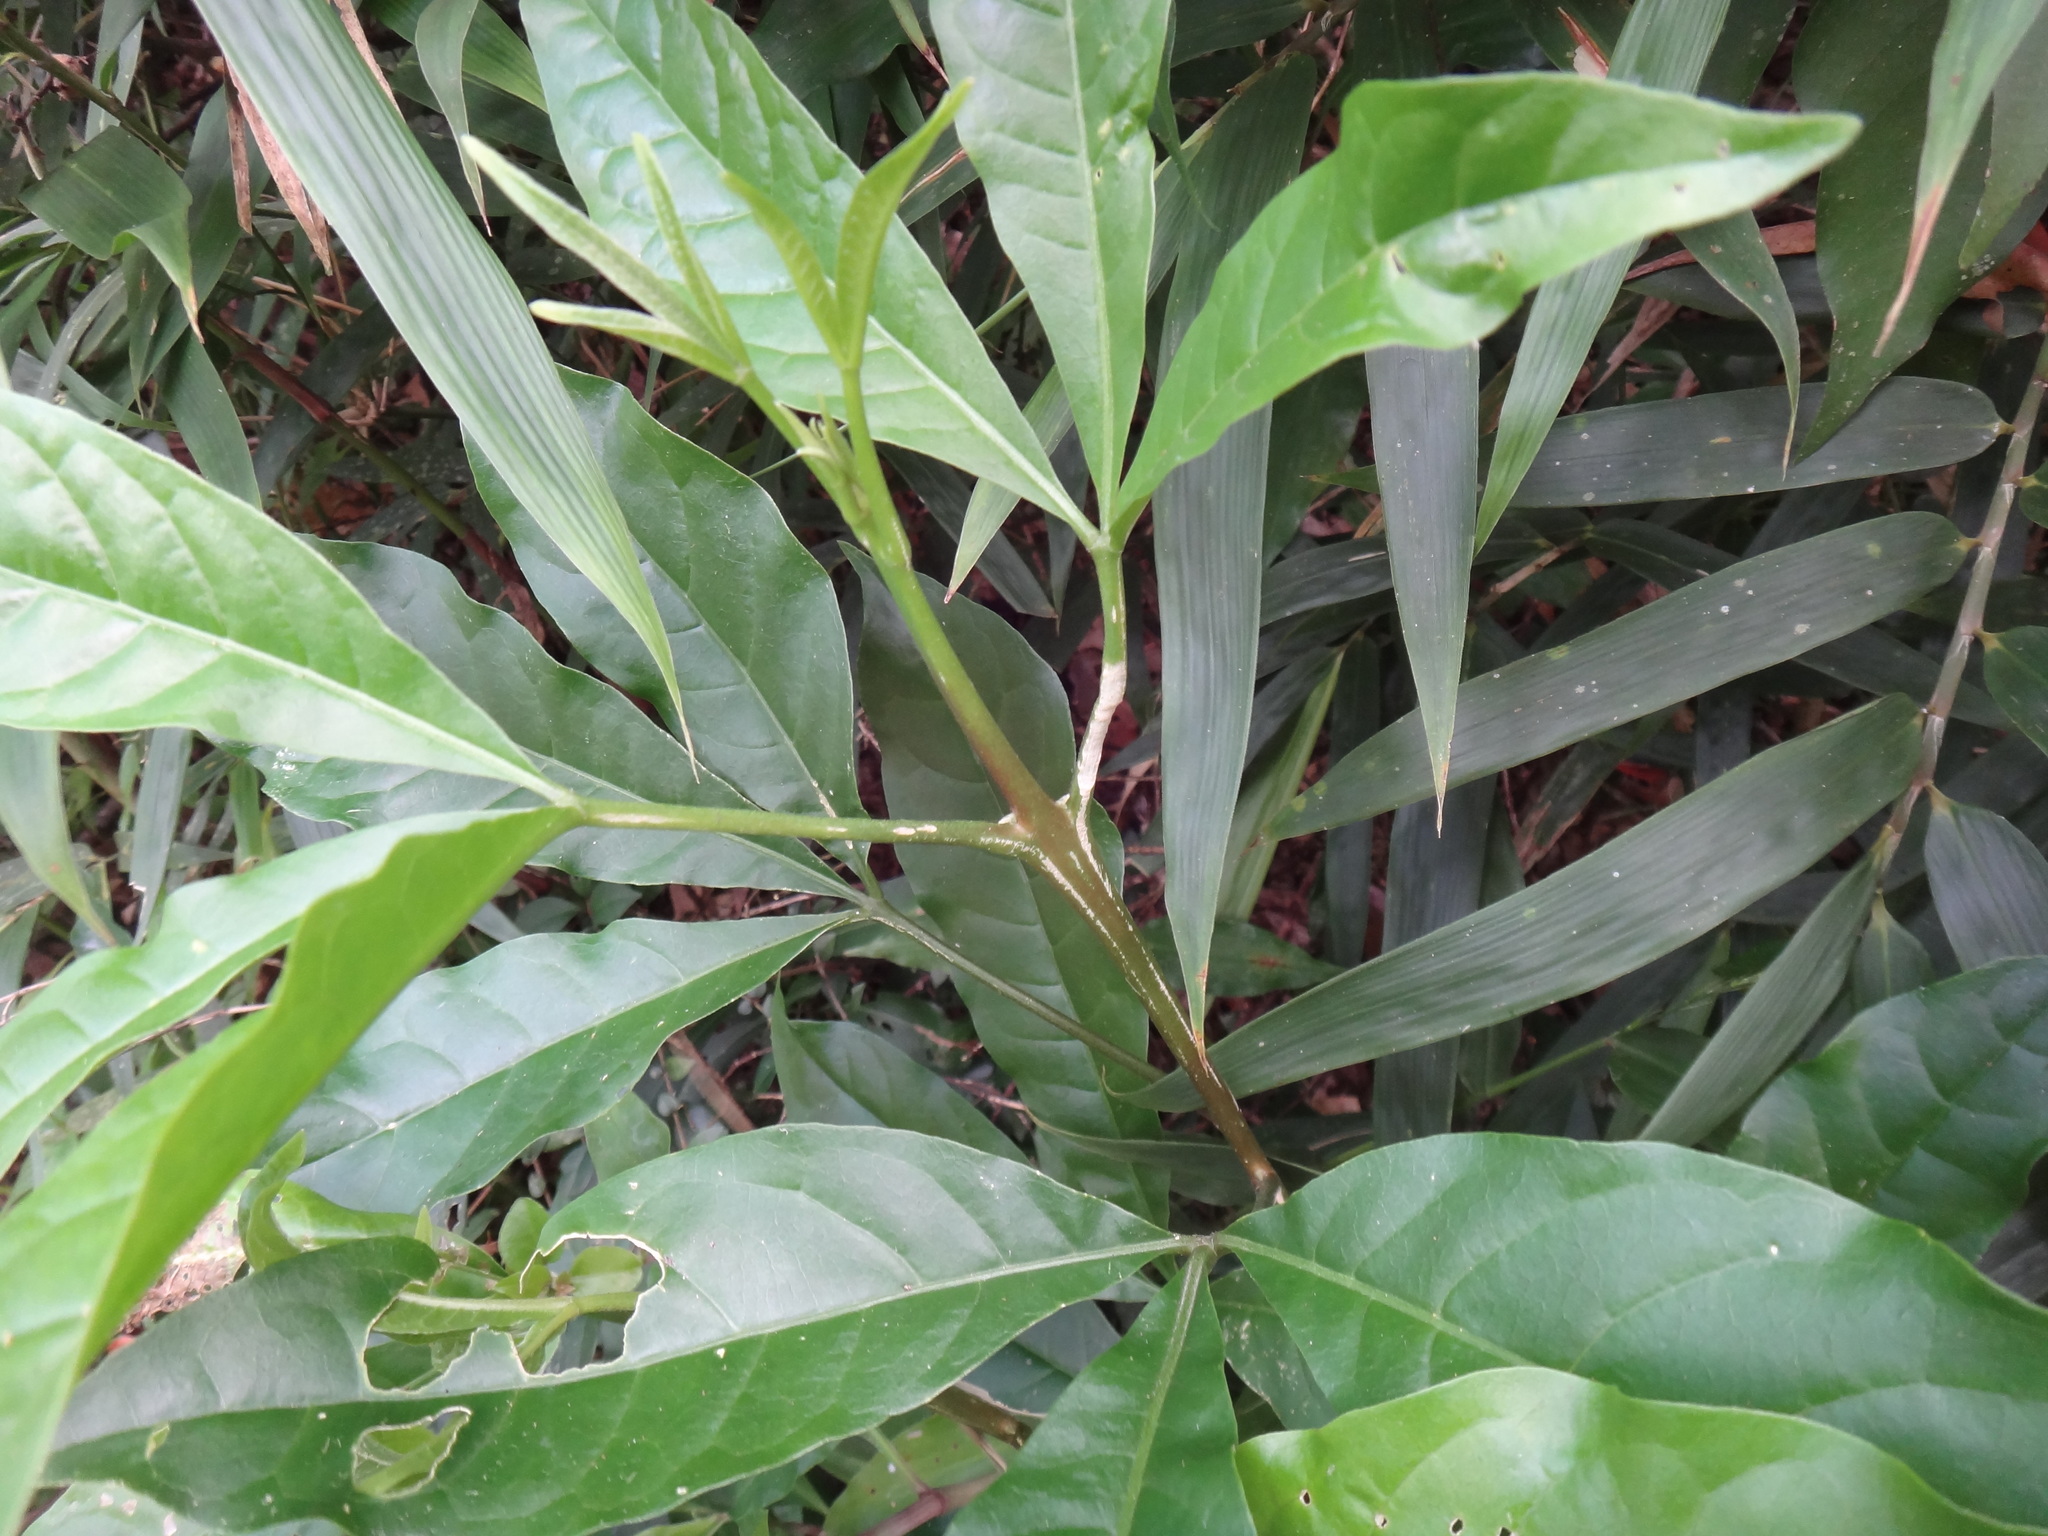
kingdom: Plantae
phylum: Tracheophyta
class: Magnoliopsida
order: Sapindales
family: Rutaceae
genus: Melicope
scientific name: Melicope pteleifolia
